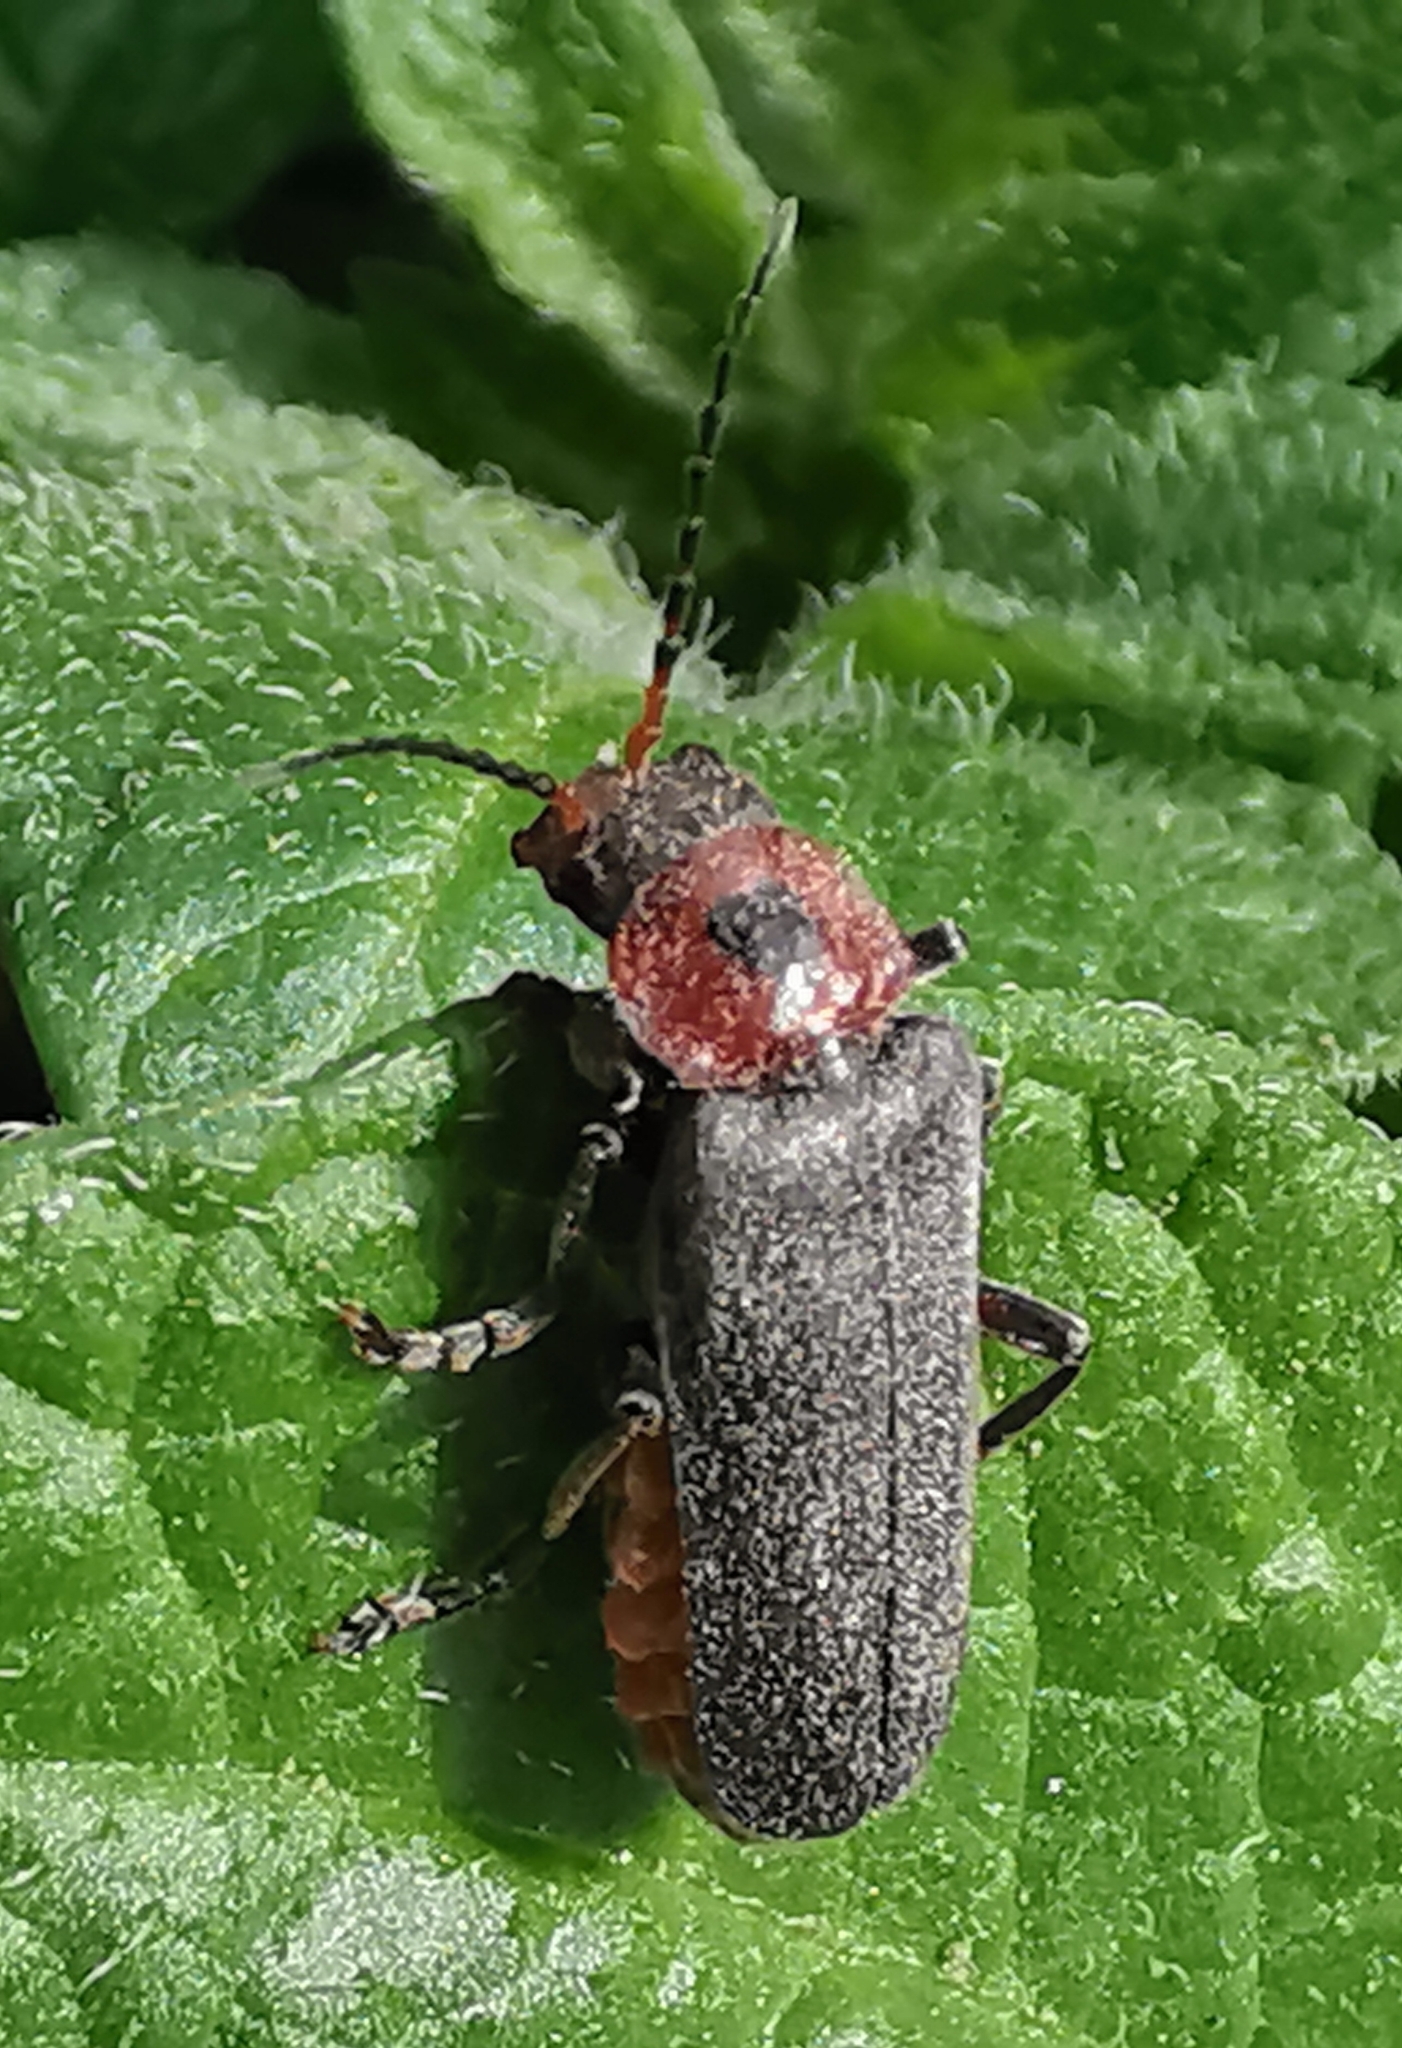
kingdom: Animalia
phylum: Arthropoda
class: Insecta
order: Coleoptera
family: Cantharidae
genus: Cantharis
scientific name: Cantharis rustica
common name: Soldier beetle
